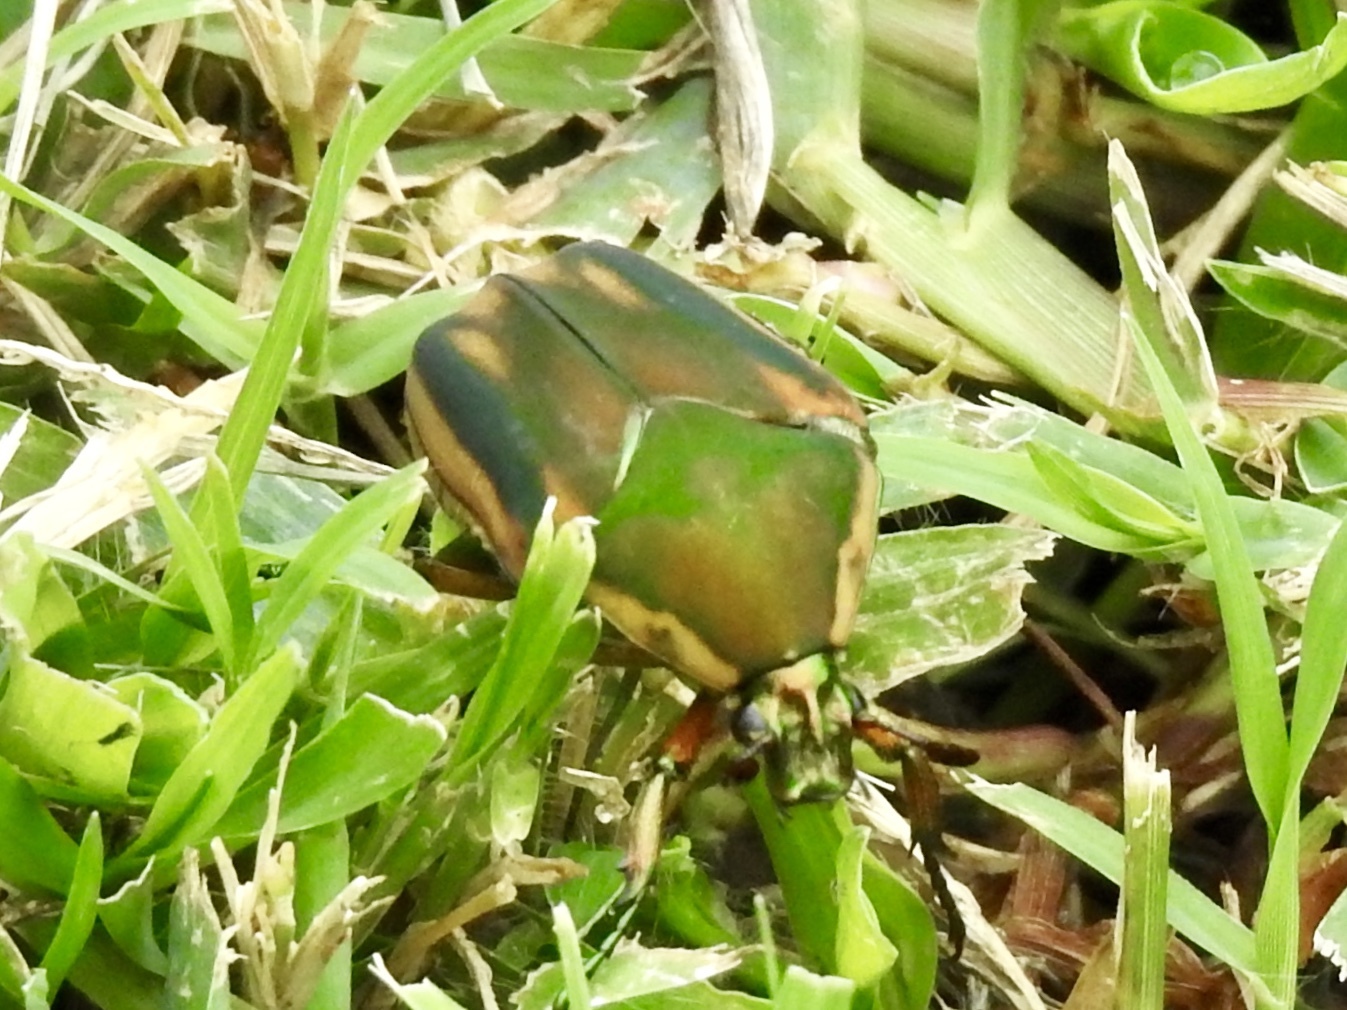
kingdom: Animalia
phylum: Arthropoda
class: Insecta
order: Coleoptera
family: Scarabaeidae
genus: Cotinis
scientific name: Cotinis nitida
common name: Common green june beetle
